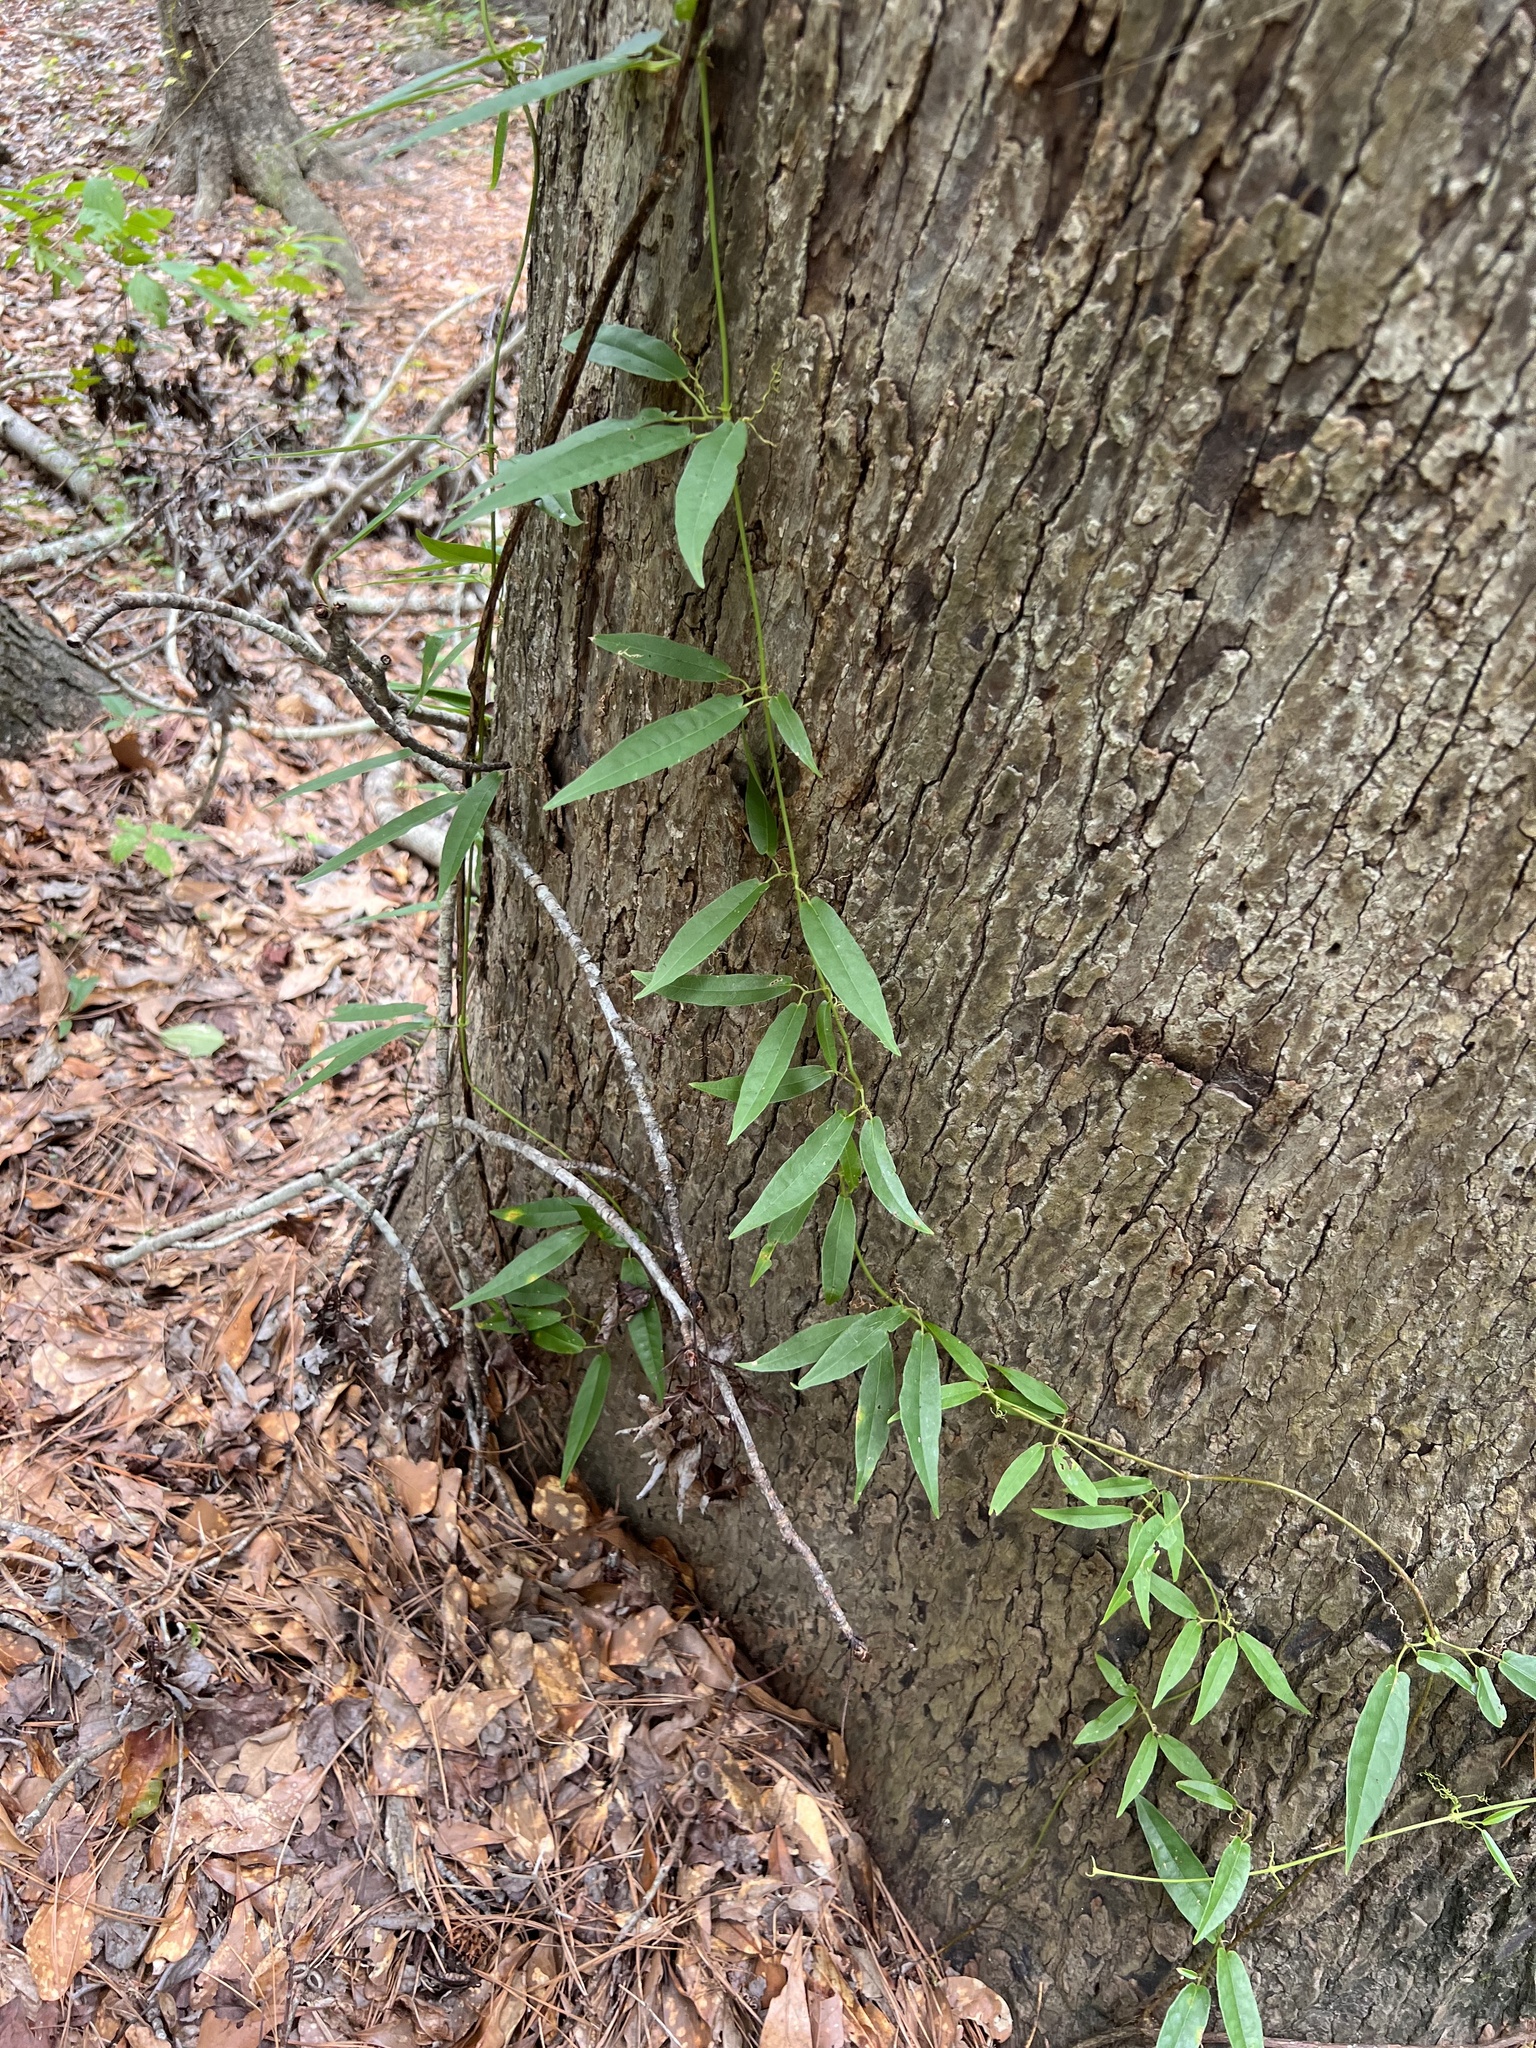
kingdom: Plantae
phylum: Tracheophyta
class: Magnoliopsida
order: Lamiales
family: Bignoniaceae
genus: Bignonia
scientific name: Bignonia capreolata
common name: Crossvine
